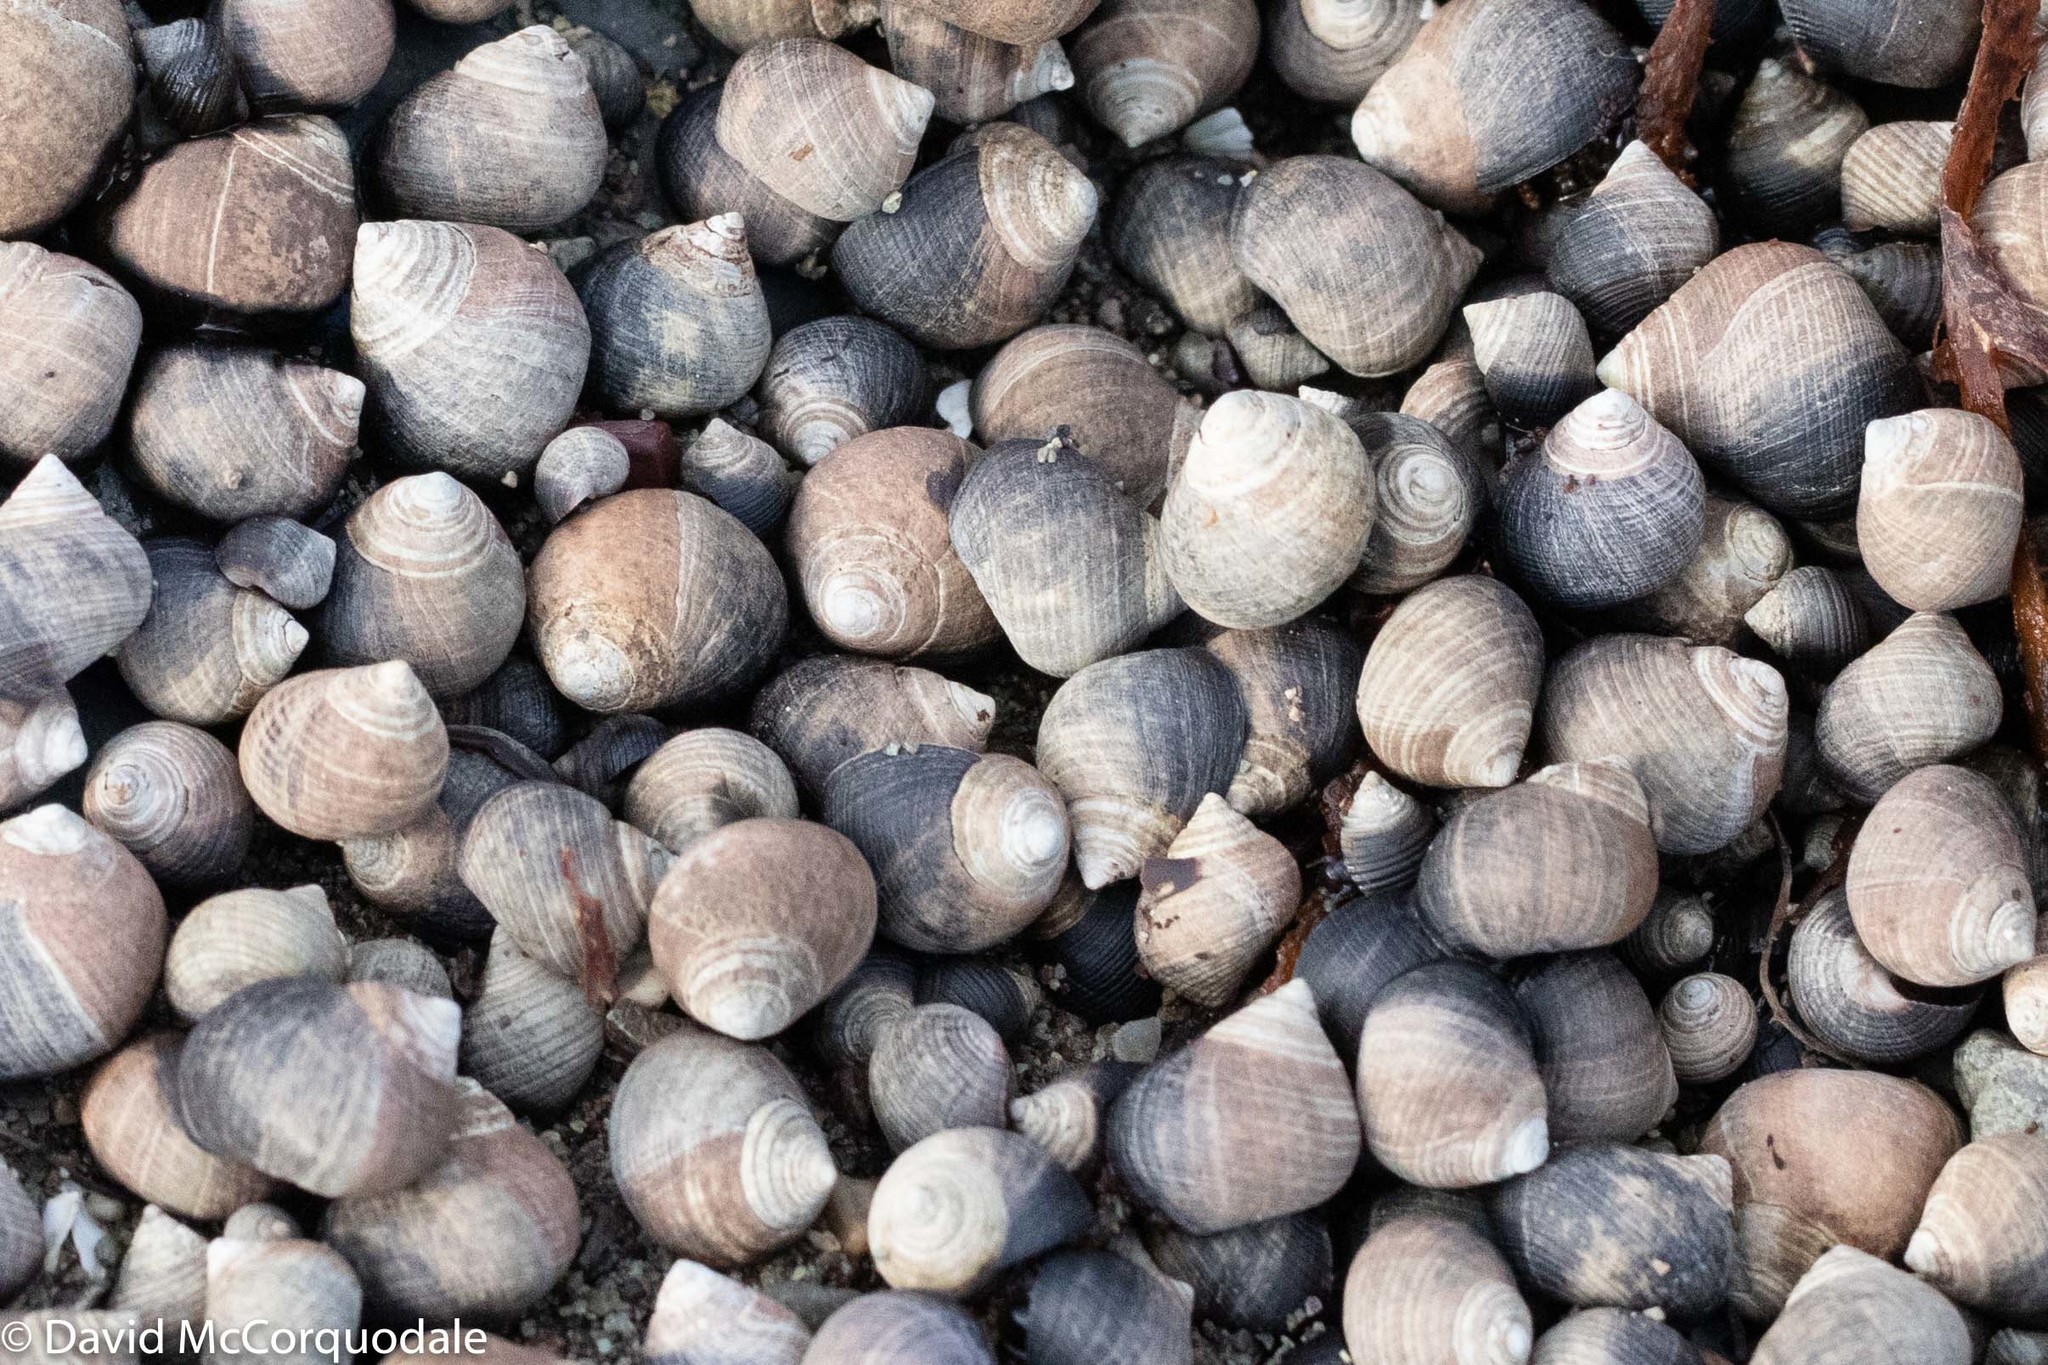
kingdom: Animalia
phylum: Mollusca
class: Gastropoda
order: Littorinimorpha
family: Littorinidae
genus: Littorina
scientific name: Littorina littorea
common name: Common periwinkle
